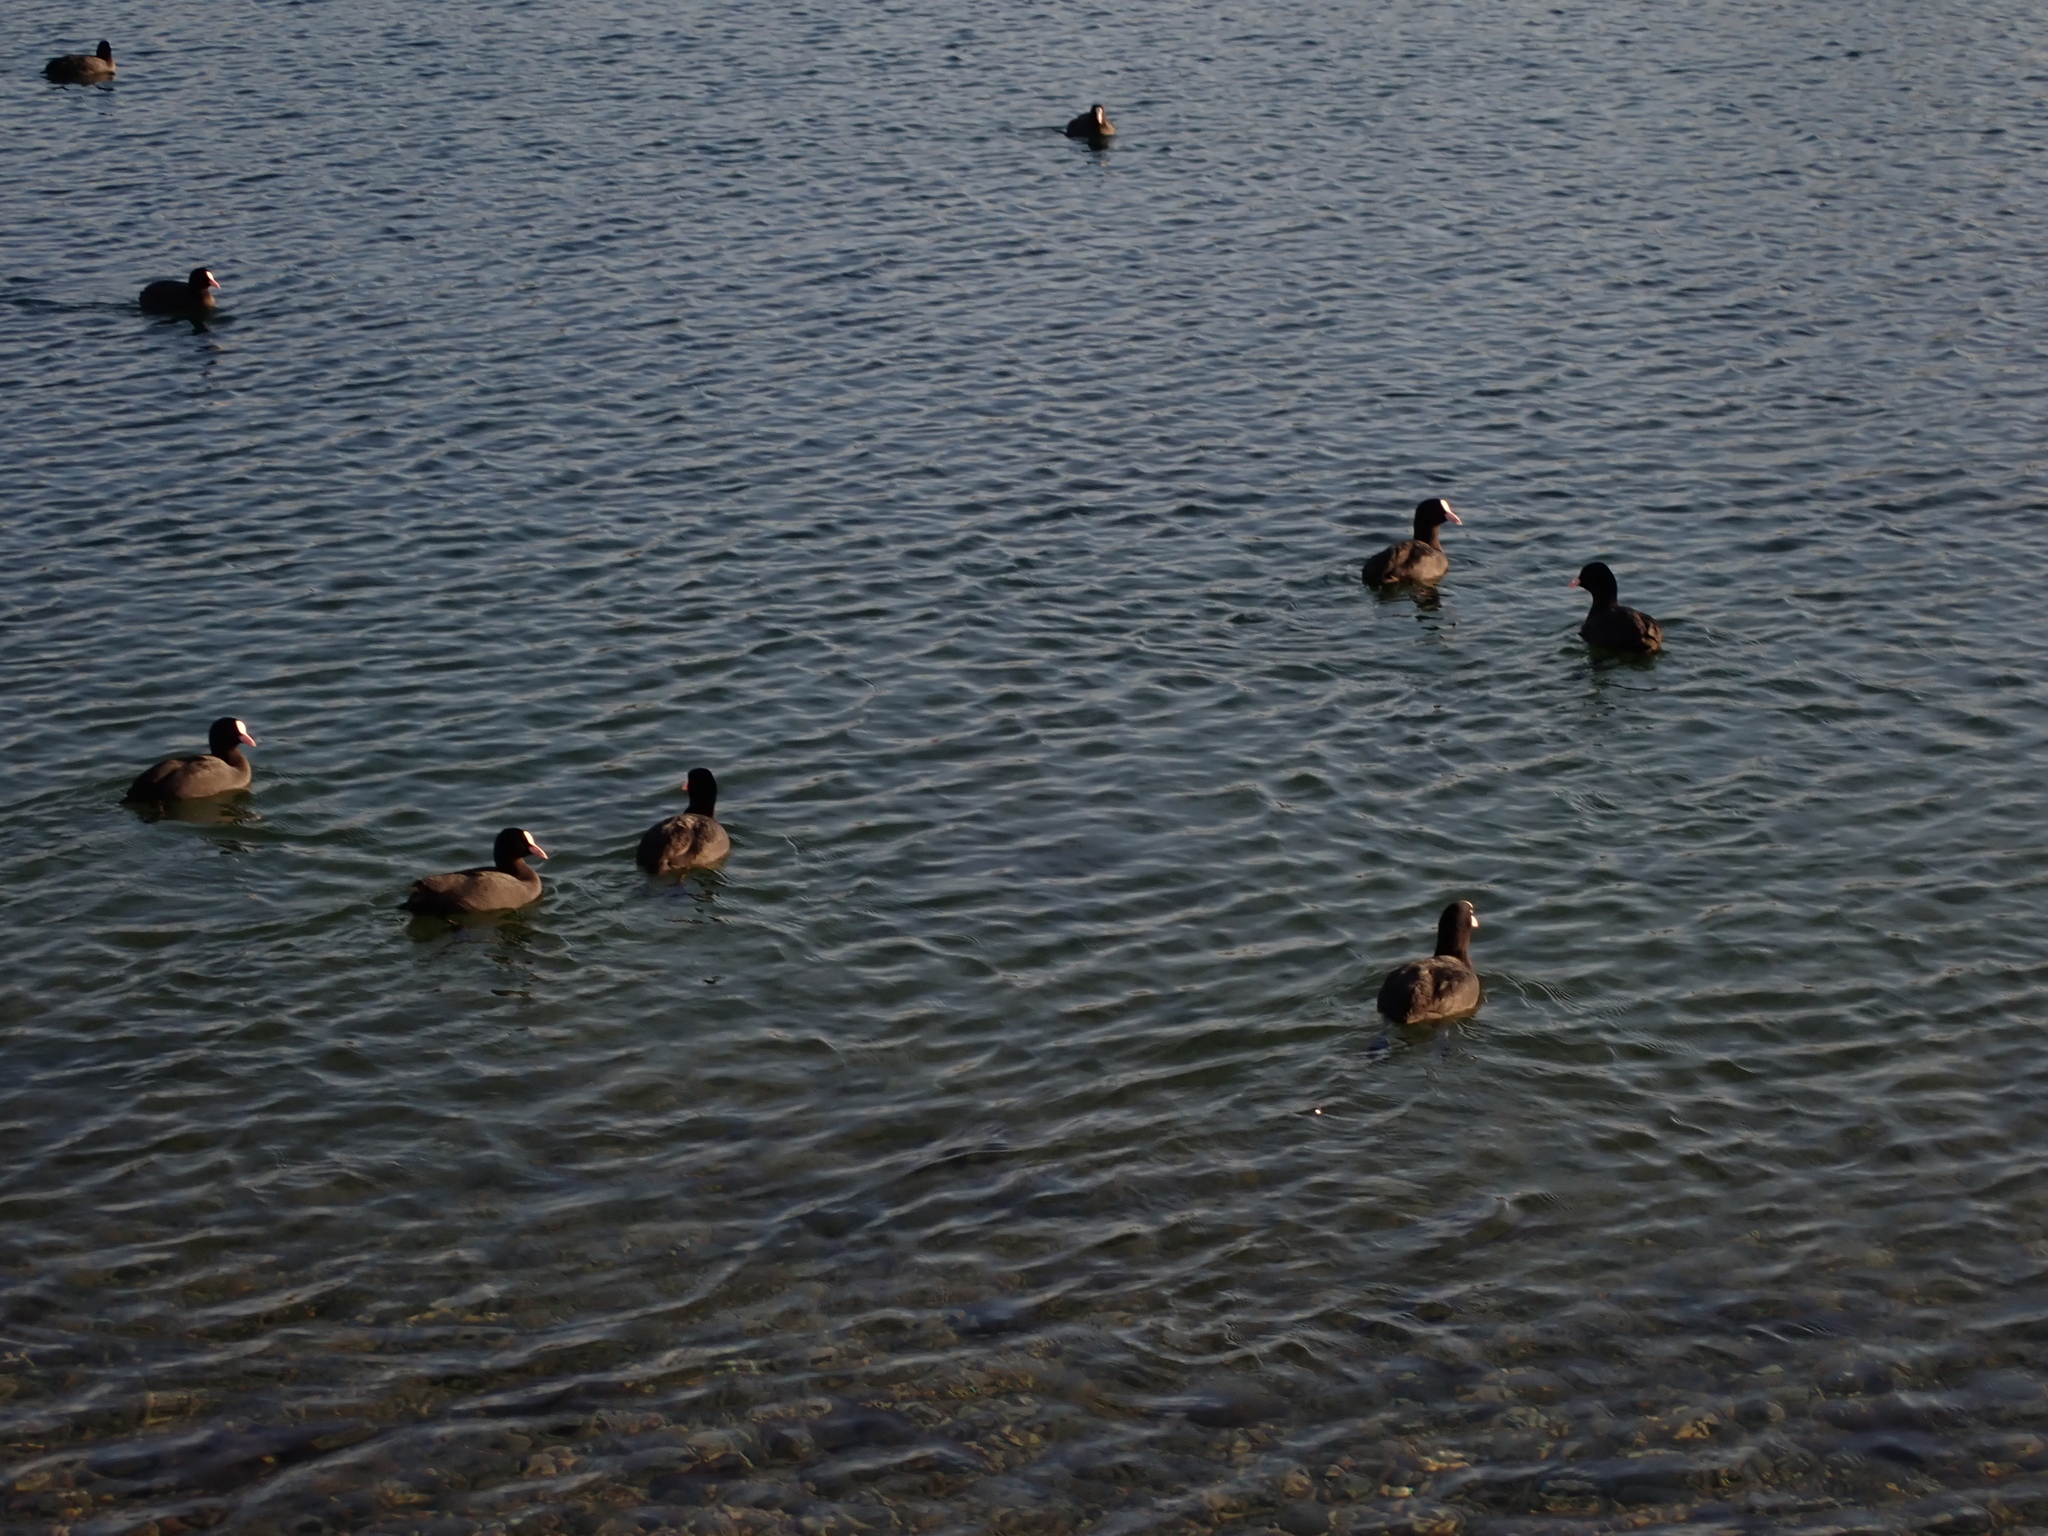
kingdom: Animalia
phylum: Chordata
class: Aves
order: Gruiformes
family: Rallidae
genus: Fulica
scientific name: Fulica atra
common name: Eurasian coot
